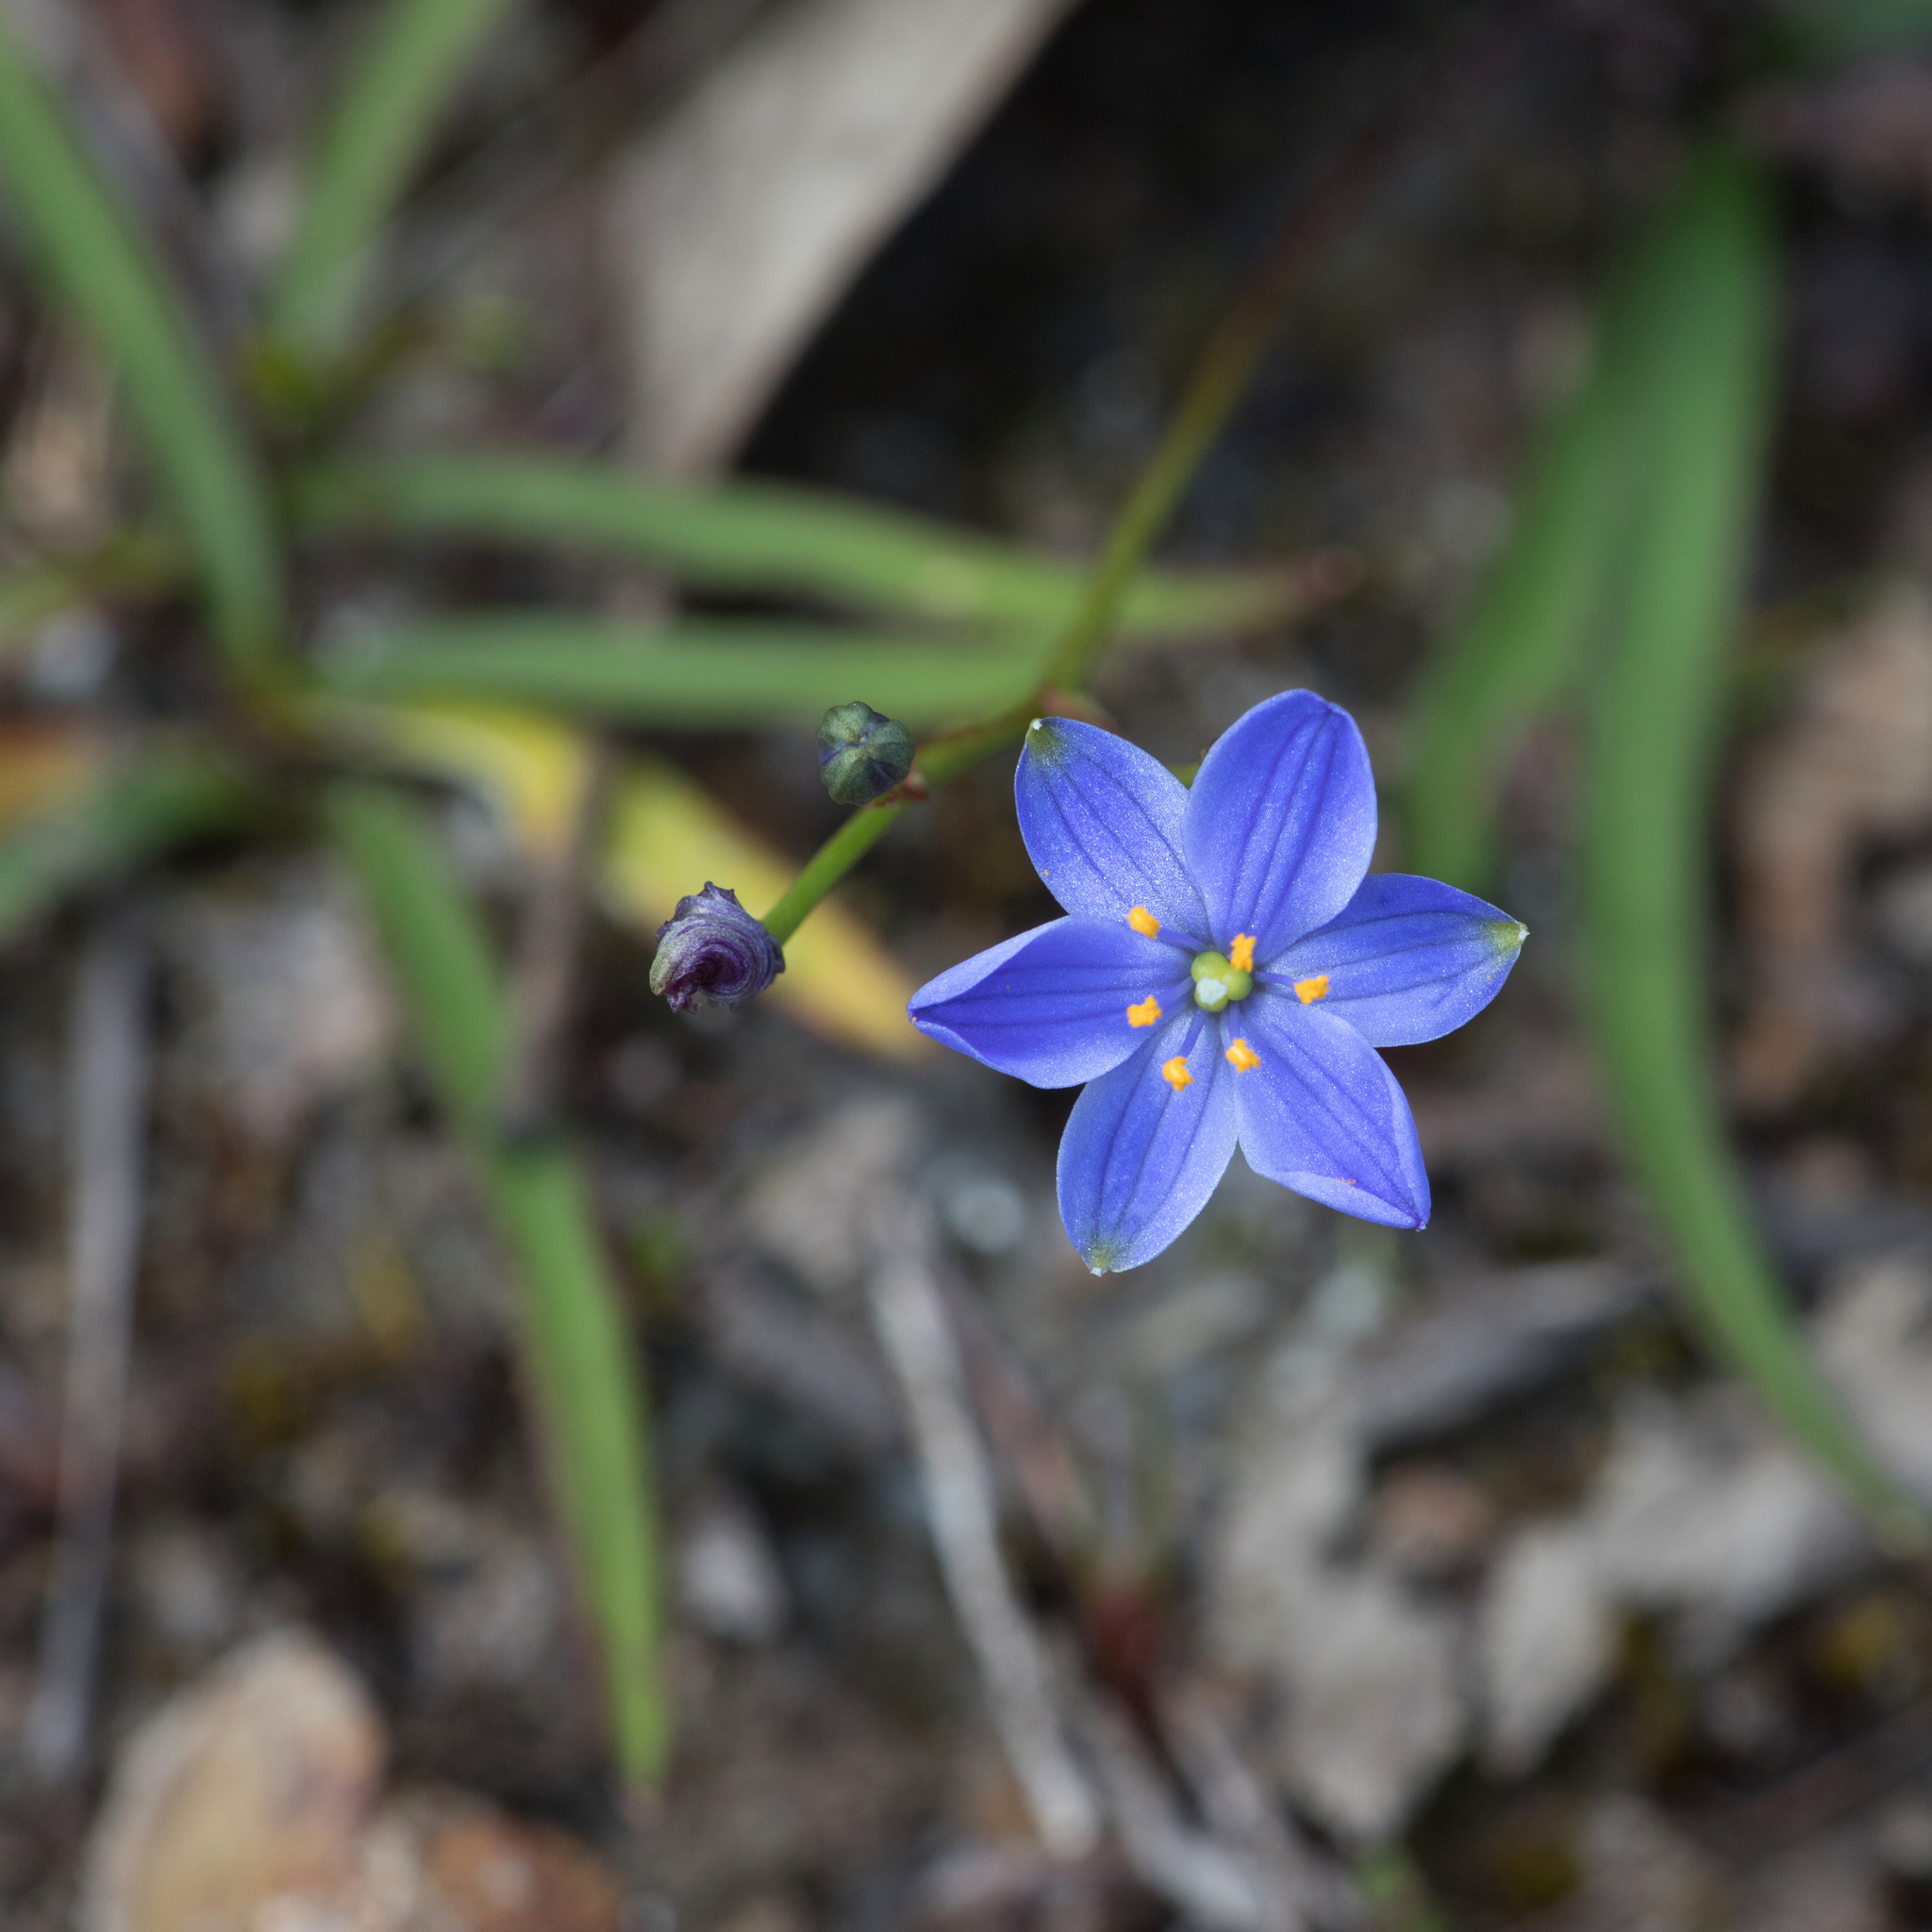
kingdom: Plantae
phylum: Tracheophyta
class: Liliopsida
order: Asparagales
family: Asphodelaceae
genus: Chamaescilla
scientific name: Chamaescilla corymbosa
